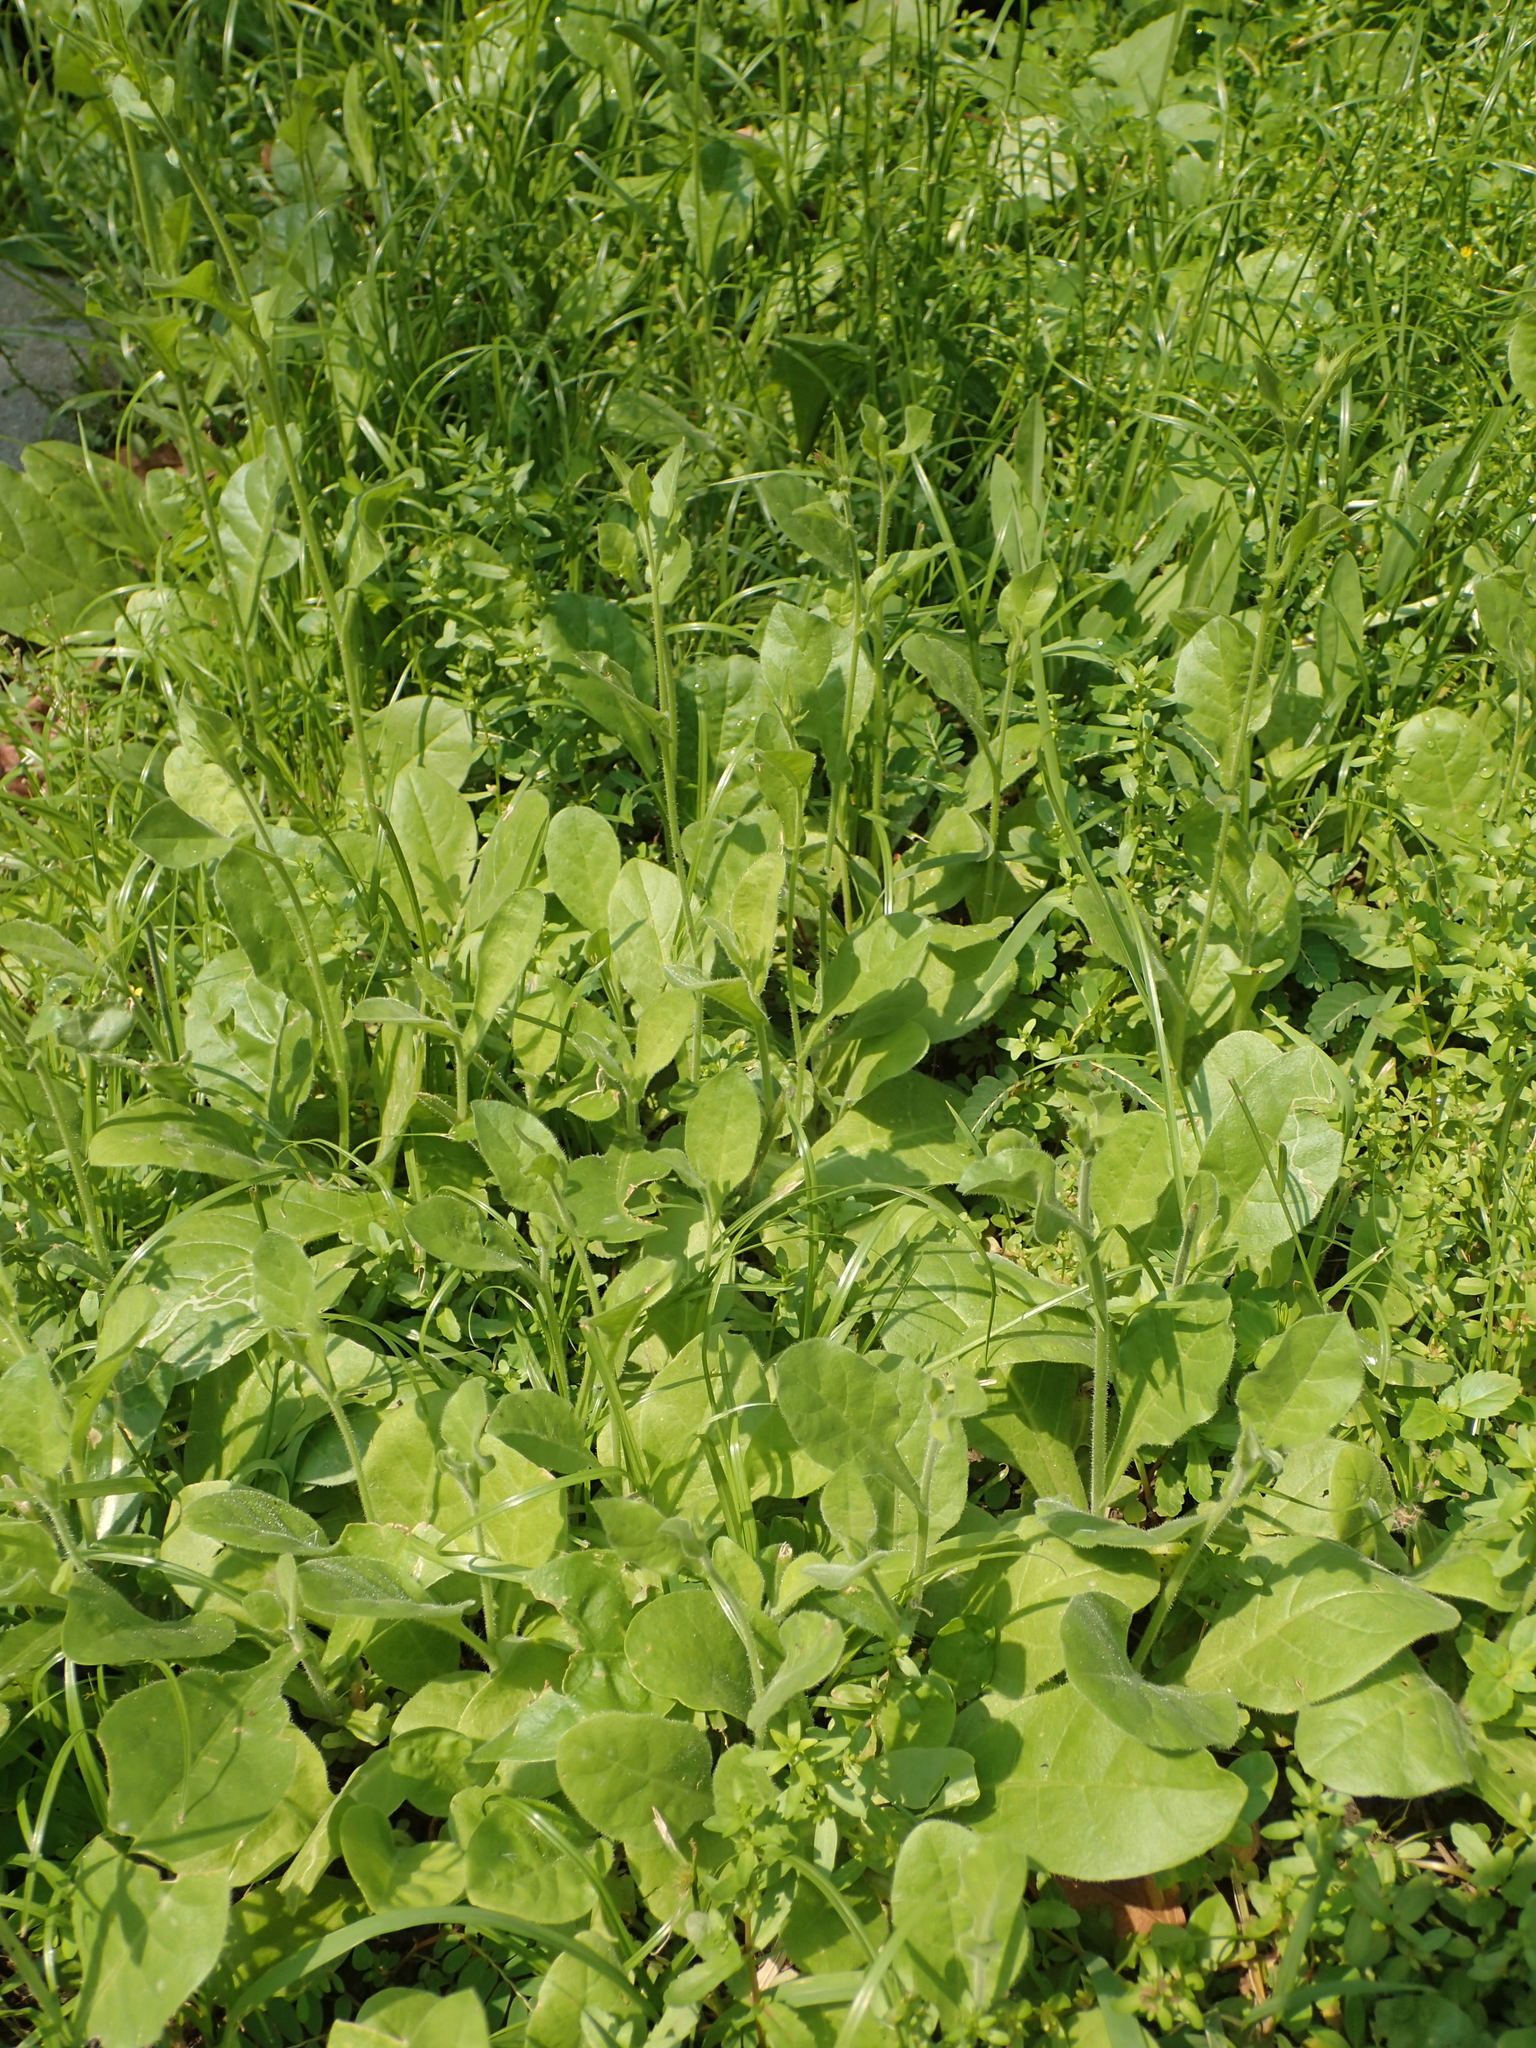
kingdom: Plantae
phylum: Tracheophyta
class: Magnoliopsida
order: Solanales
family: Solanaceae
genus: Nicotiana
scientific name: Nicotiana plumbaginifolia
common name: Tex-mex tobacco
